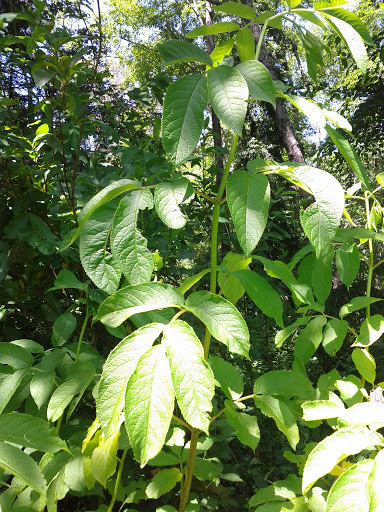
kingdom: Plantae
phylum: Tracheophyta
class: Magnoliopsida
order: Dipsacales
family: Viburnaceae
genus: Sambucus
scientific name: Sambucus racemosa
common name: Red-berried elder
